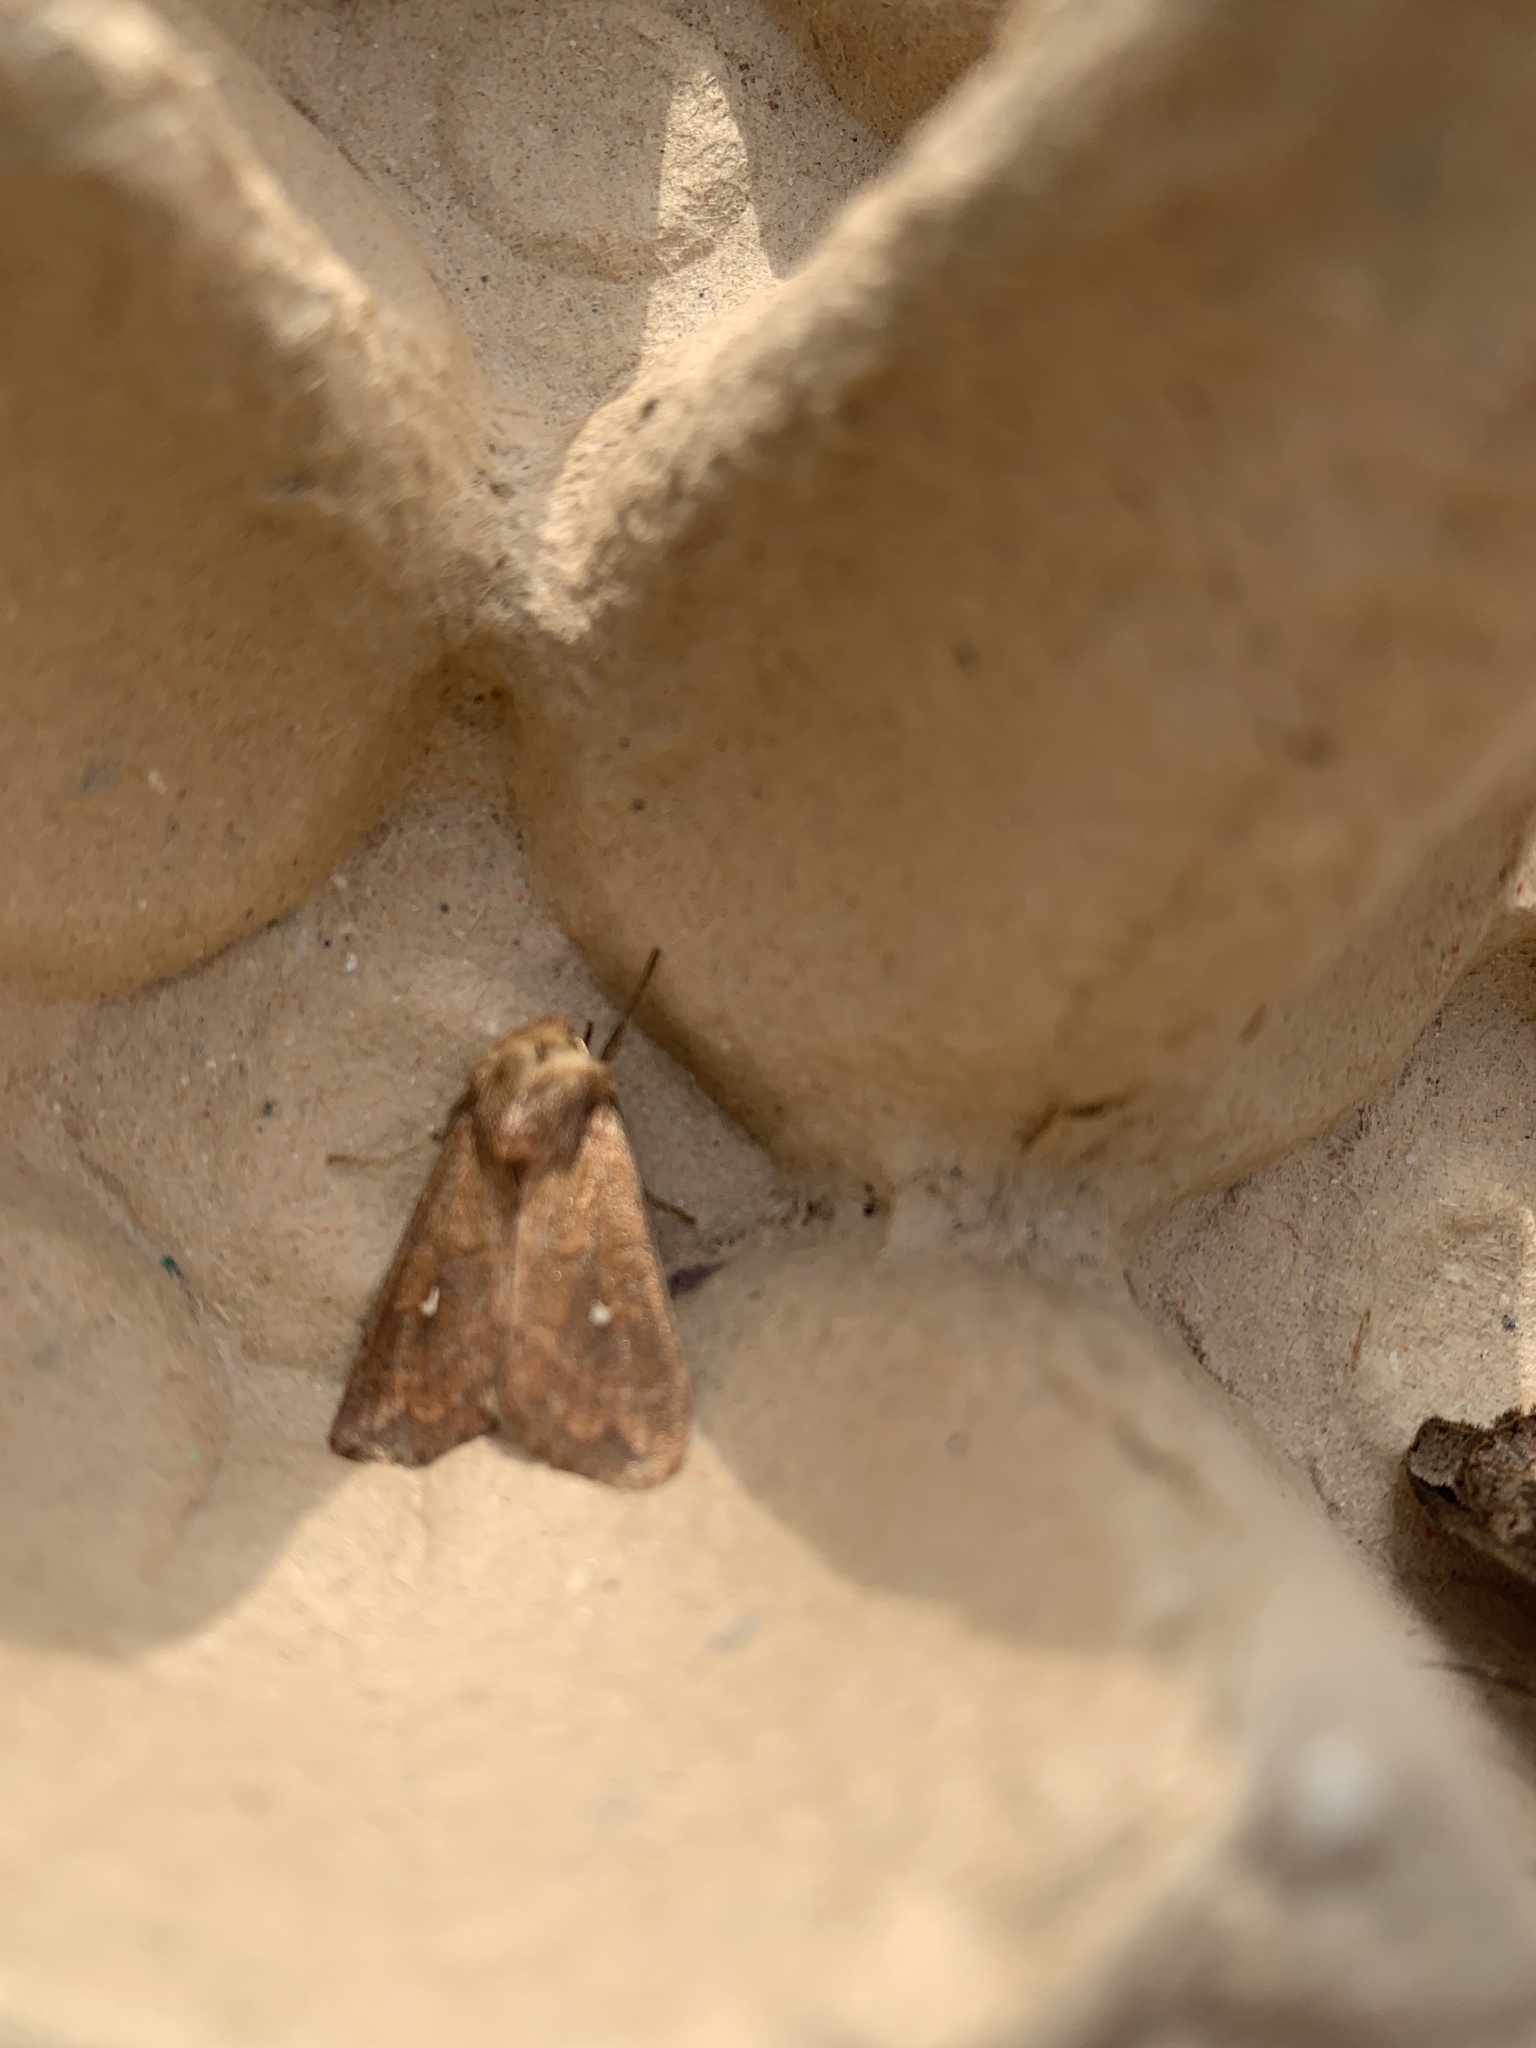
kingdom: Animalia
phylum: Arthropoda
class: Insecta
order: Lepidoptera
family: Noctuidae
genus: Mythimna
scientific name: Mythimna albipuncta
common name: White-point
